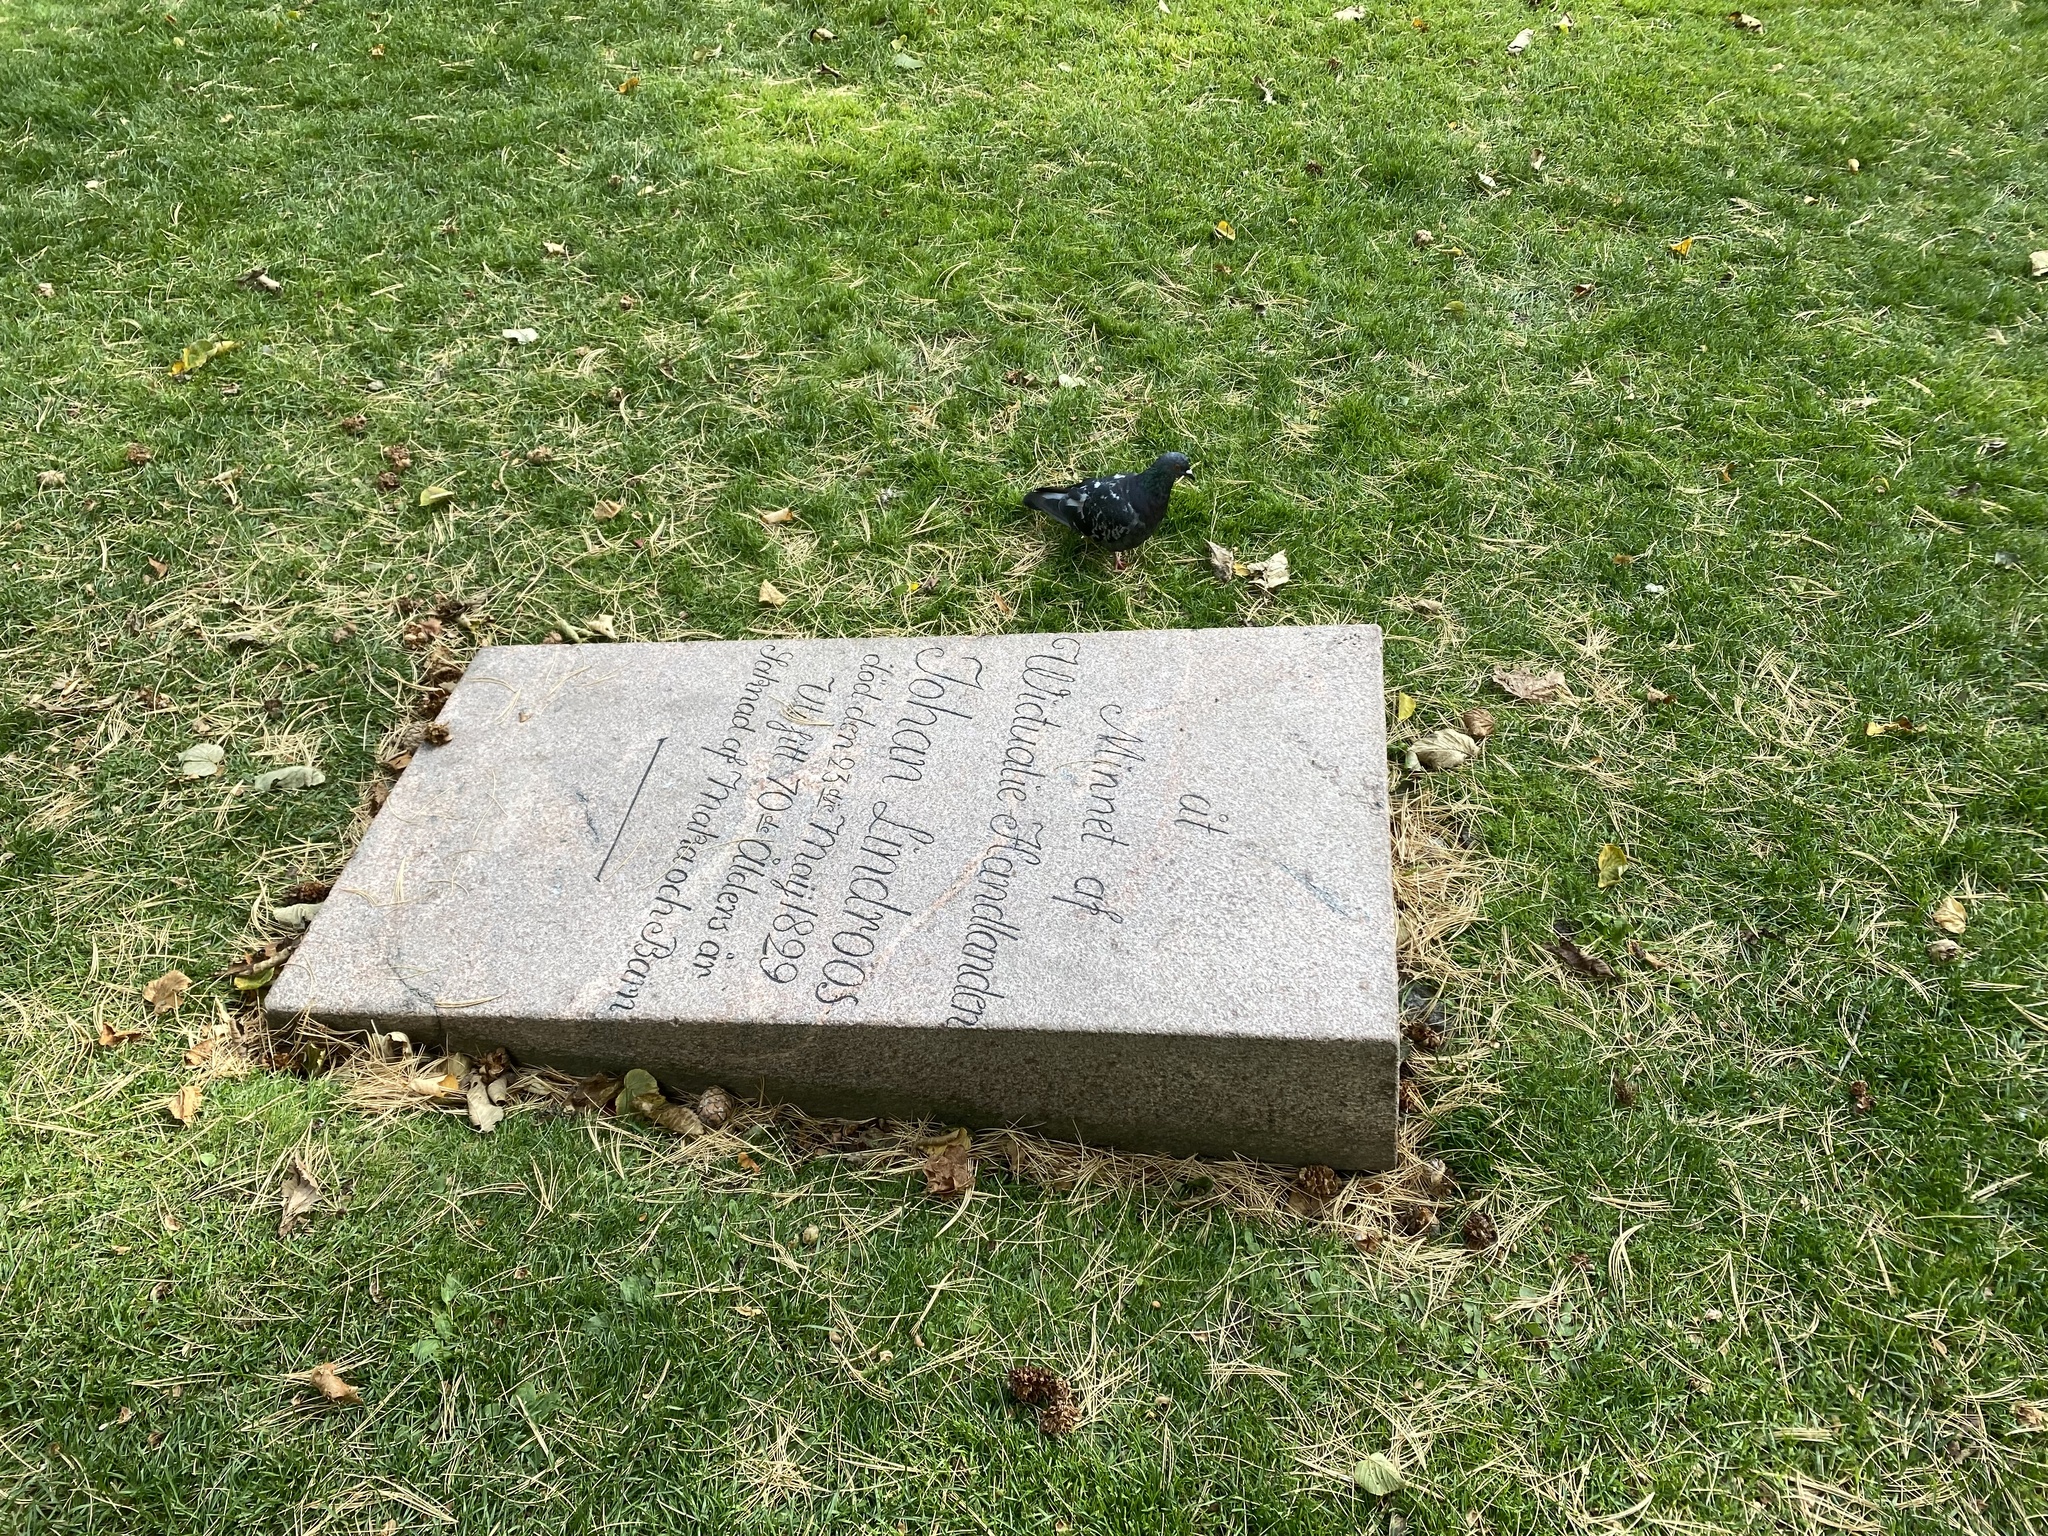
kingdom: Animalia
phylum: Chordata
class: Aves
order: Columbiformes
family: Columbidae
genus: Columba
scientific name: Columba livia
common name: Rock pigeon
